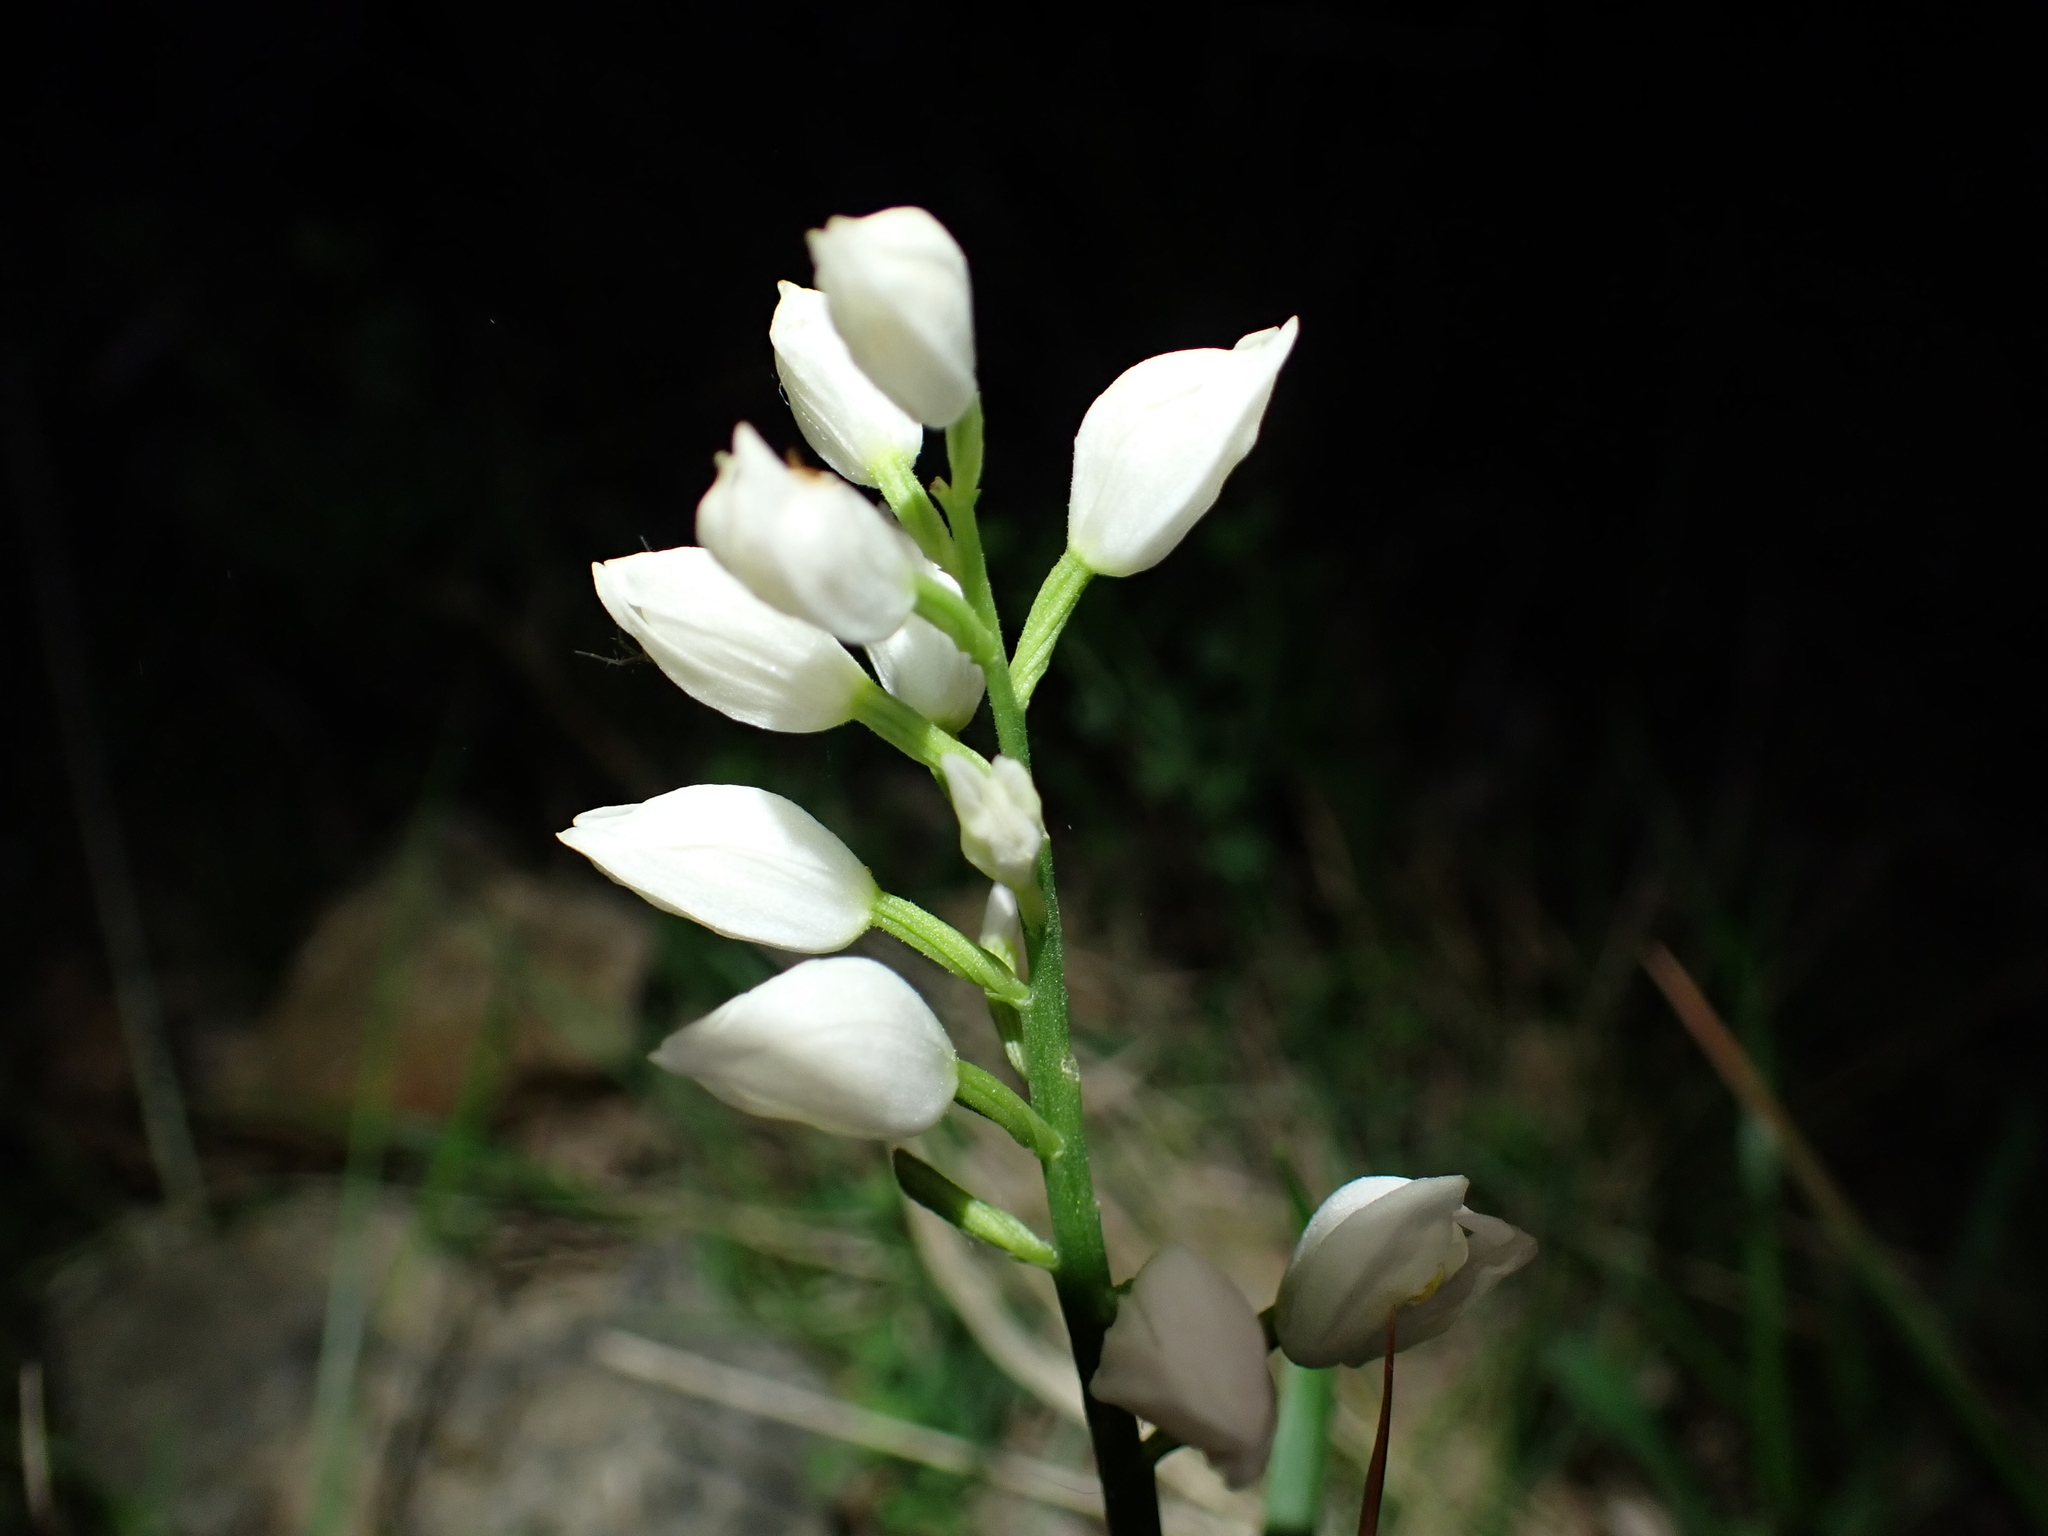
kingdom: Plantae
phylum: Tracheophyta
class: Liliopsida
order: Asparagales
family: Orchidaceae
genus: Cephalanthera
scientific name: Cephalanthera longifolia
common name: Narrow-leaved helleborine
